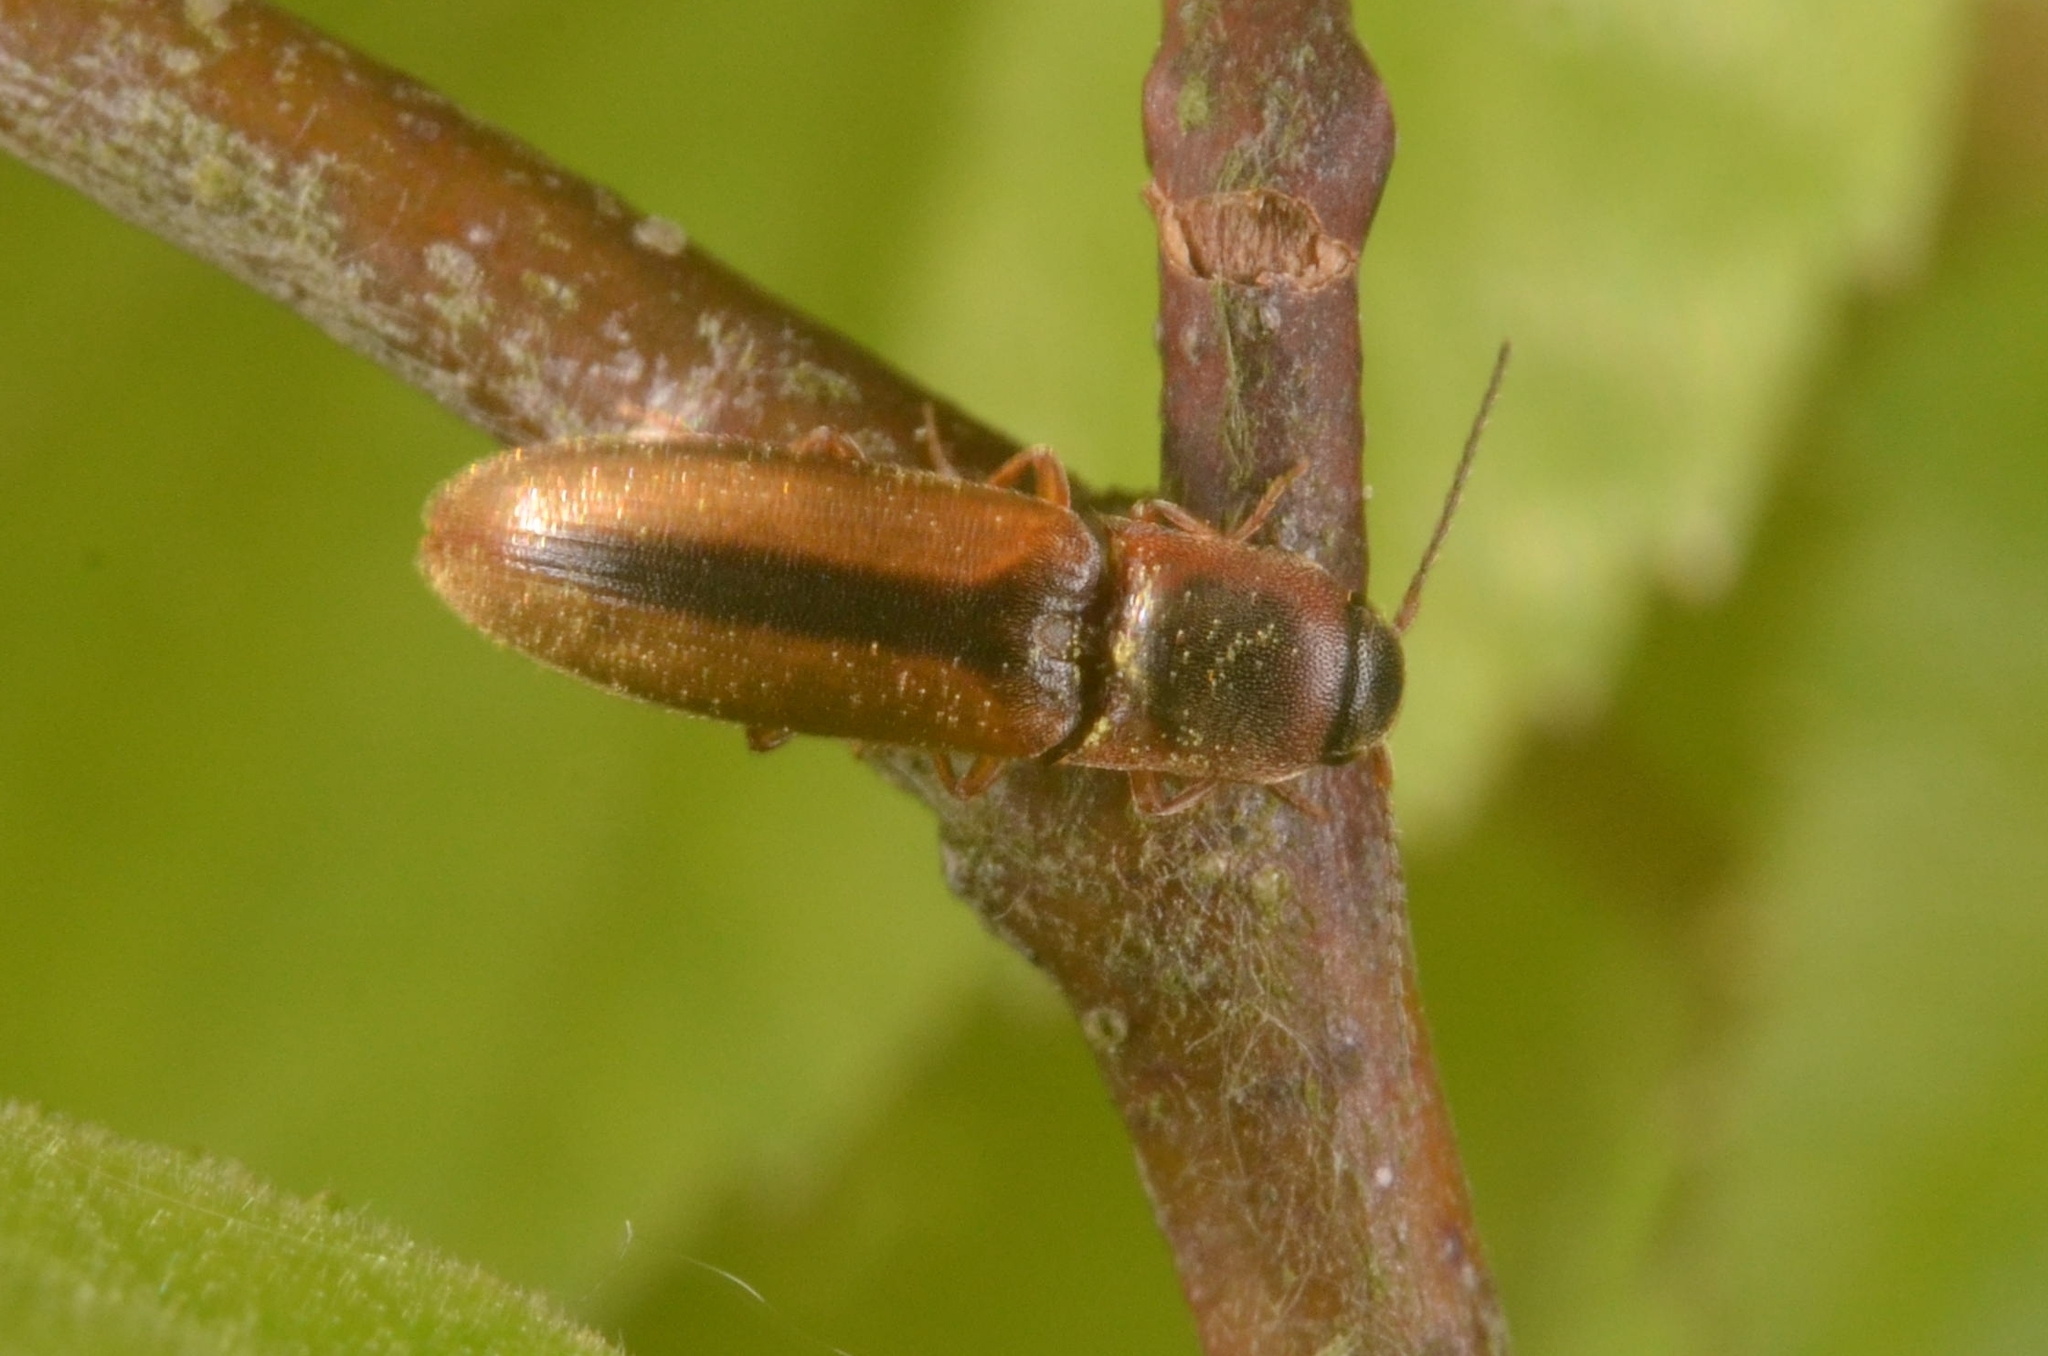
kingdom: Animalia
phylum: Arthropoda
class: Insecta
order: Coleoptera
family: Elateridae
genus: Dalopius
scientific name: Dalopius marginatus
